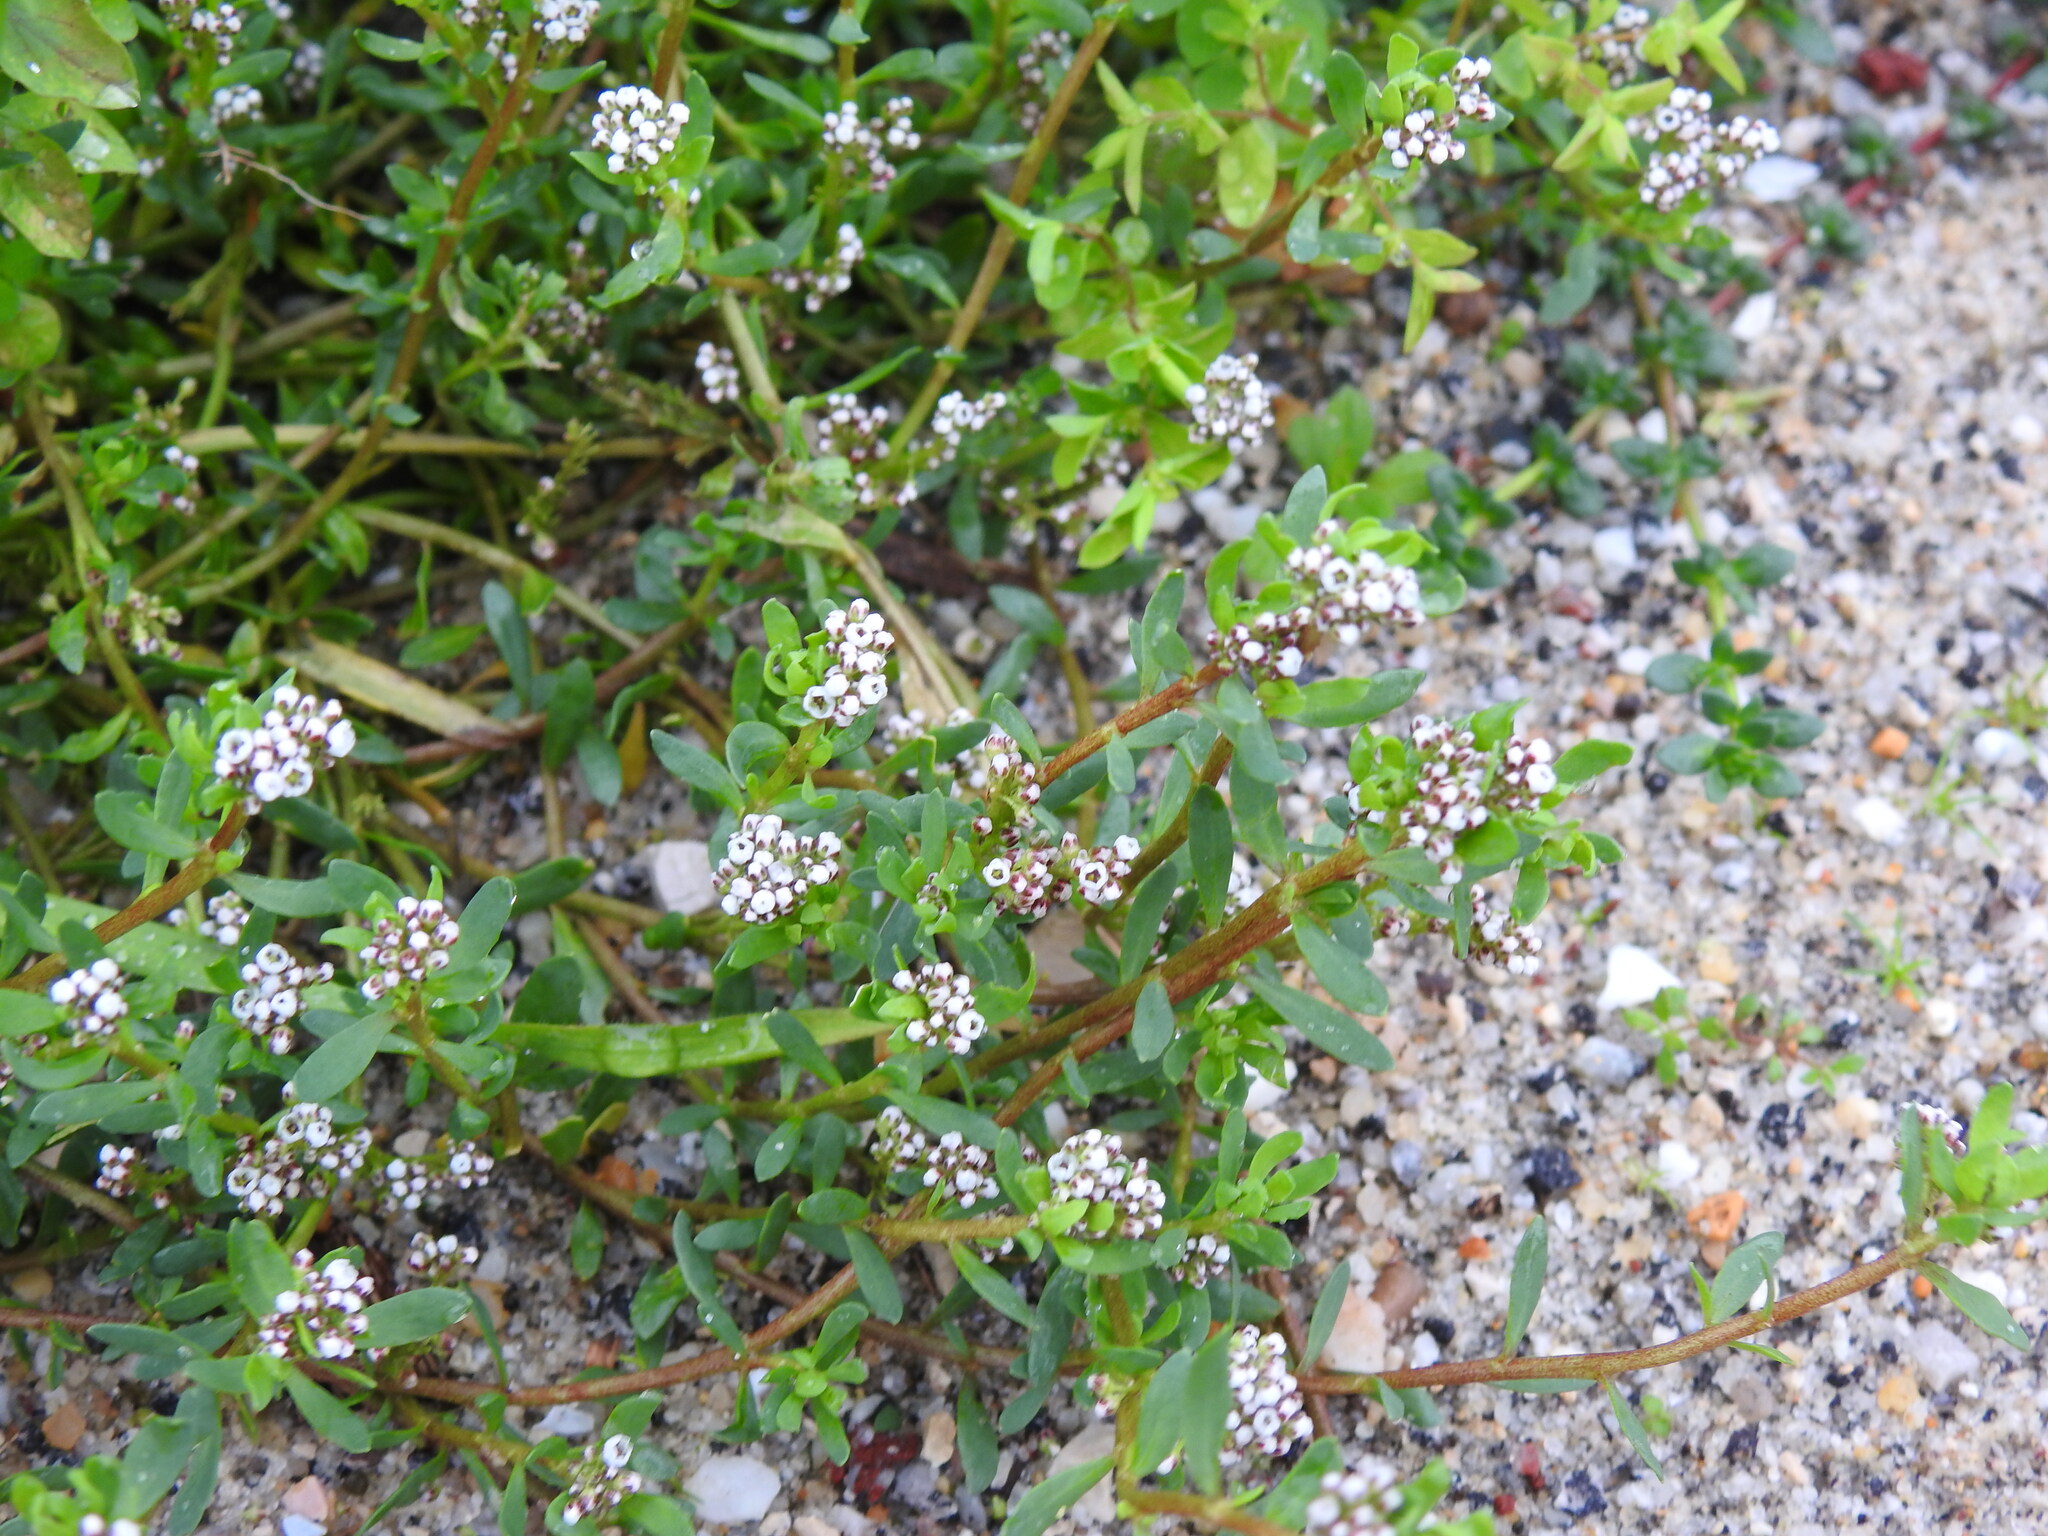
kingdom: Plantae
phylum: Tracheophyta
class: Magnoliopsida
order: Caryophyllales
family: Caryophyllaceae
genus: Corrigiola
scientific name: Corrigiola litoralis
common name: Strapwort
